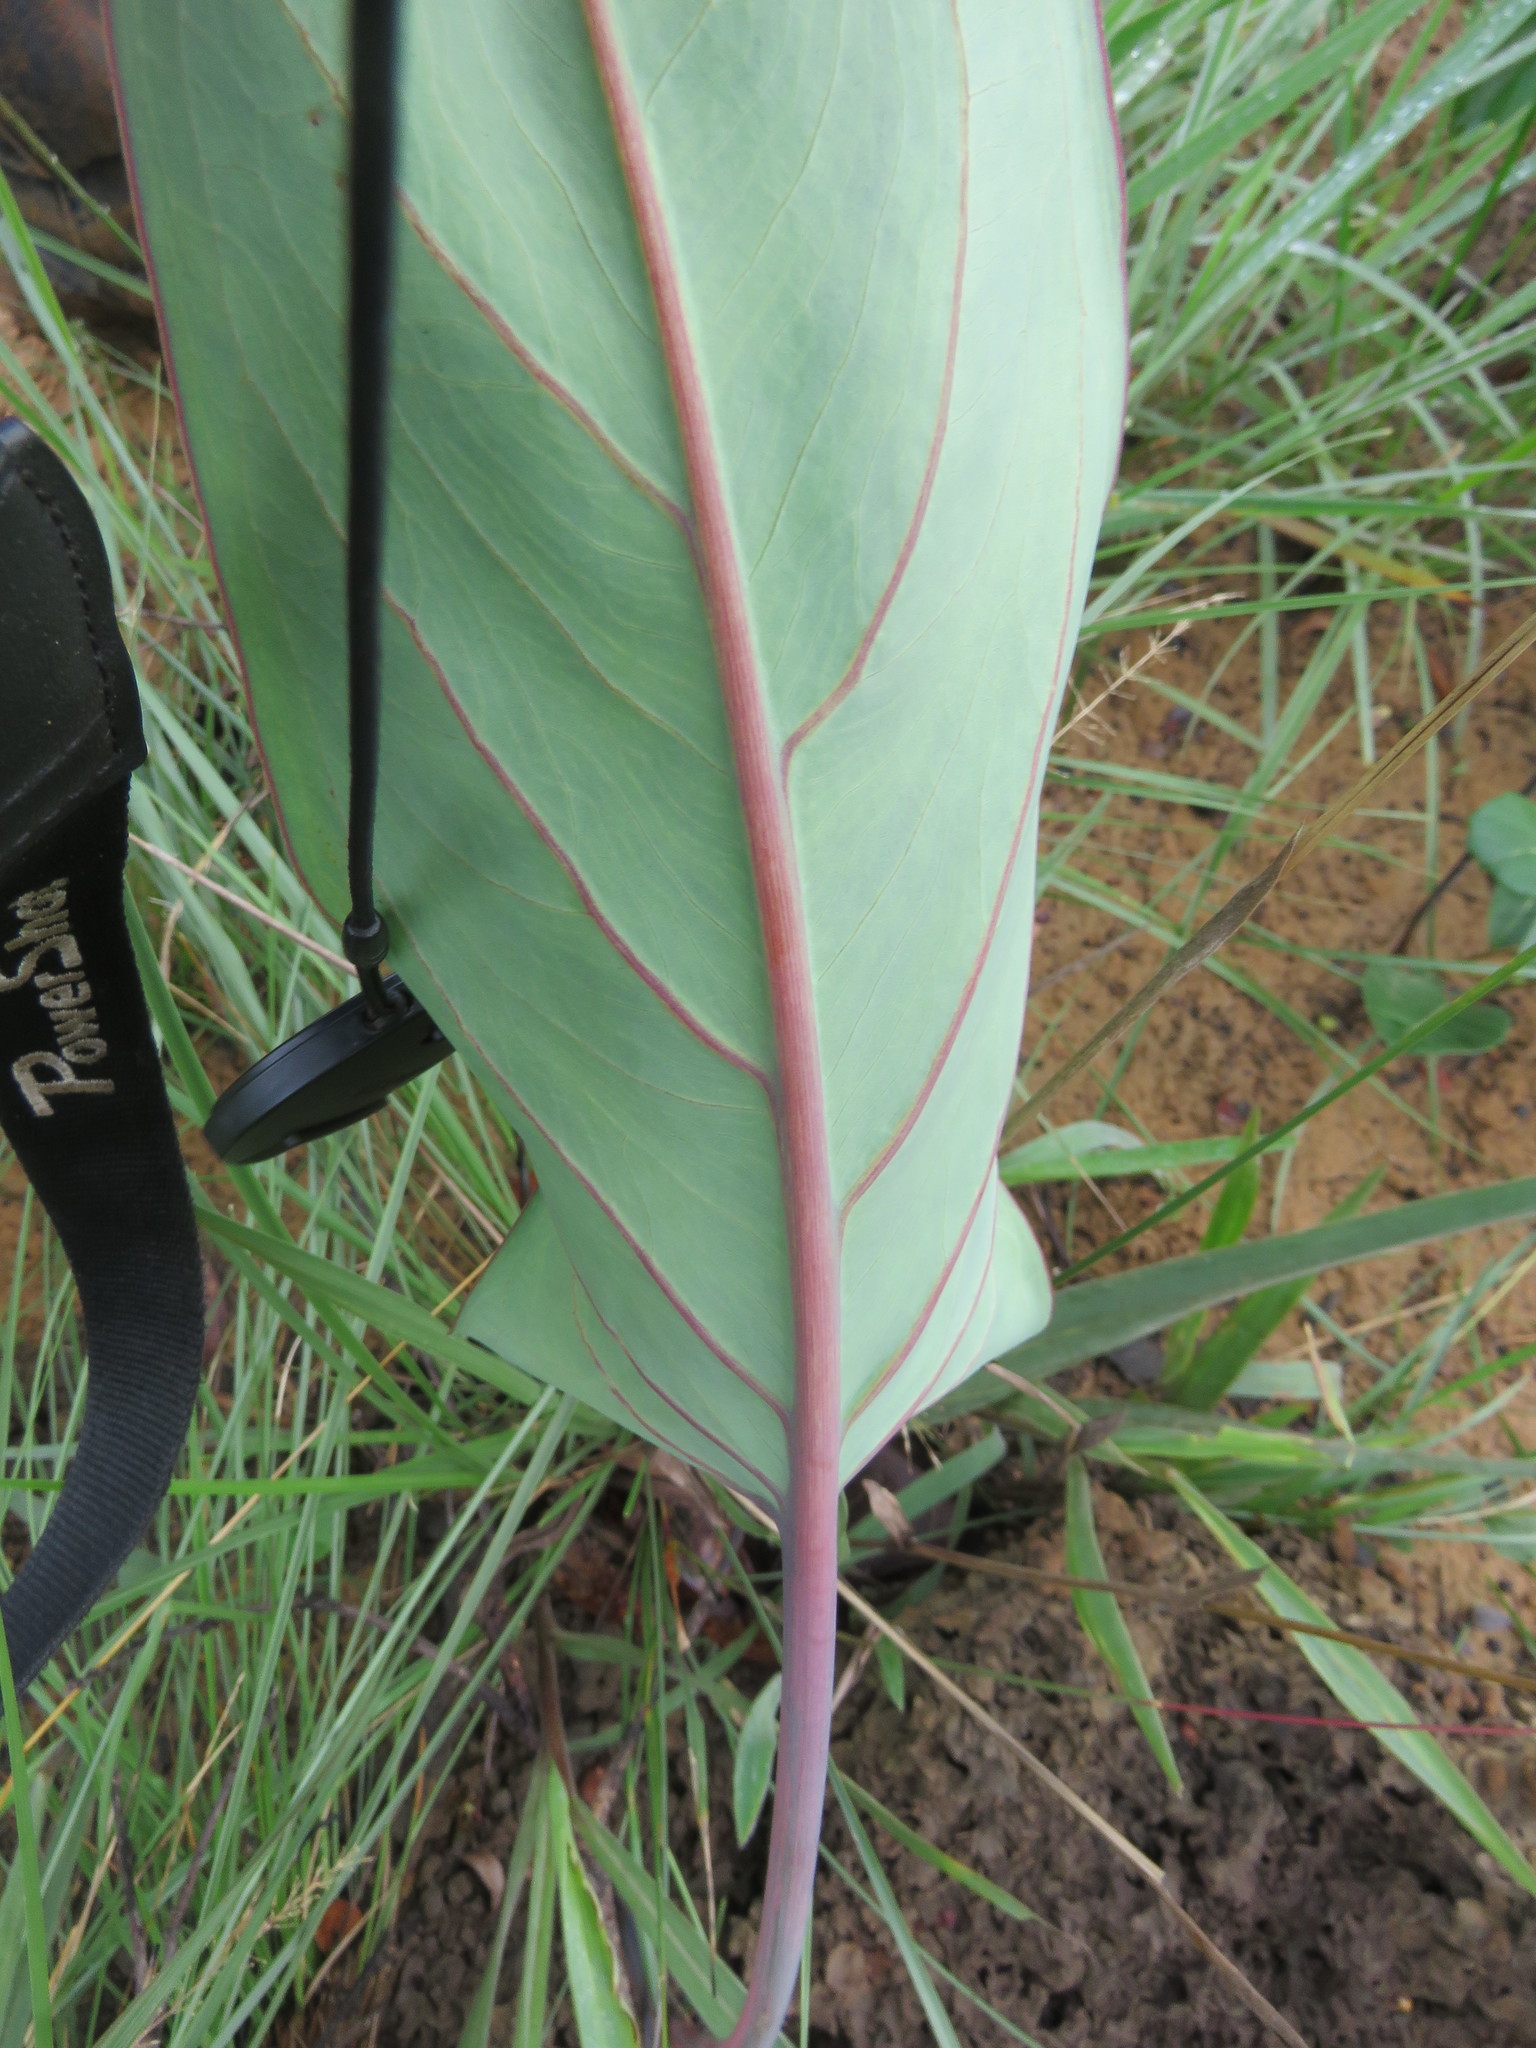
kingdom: Plantae
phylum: Tracheophyta
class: Liliopsida
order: Alismatales
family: Araceae
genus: Synandrospadix
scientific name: Synandrospadix vermitoxicus
